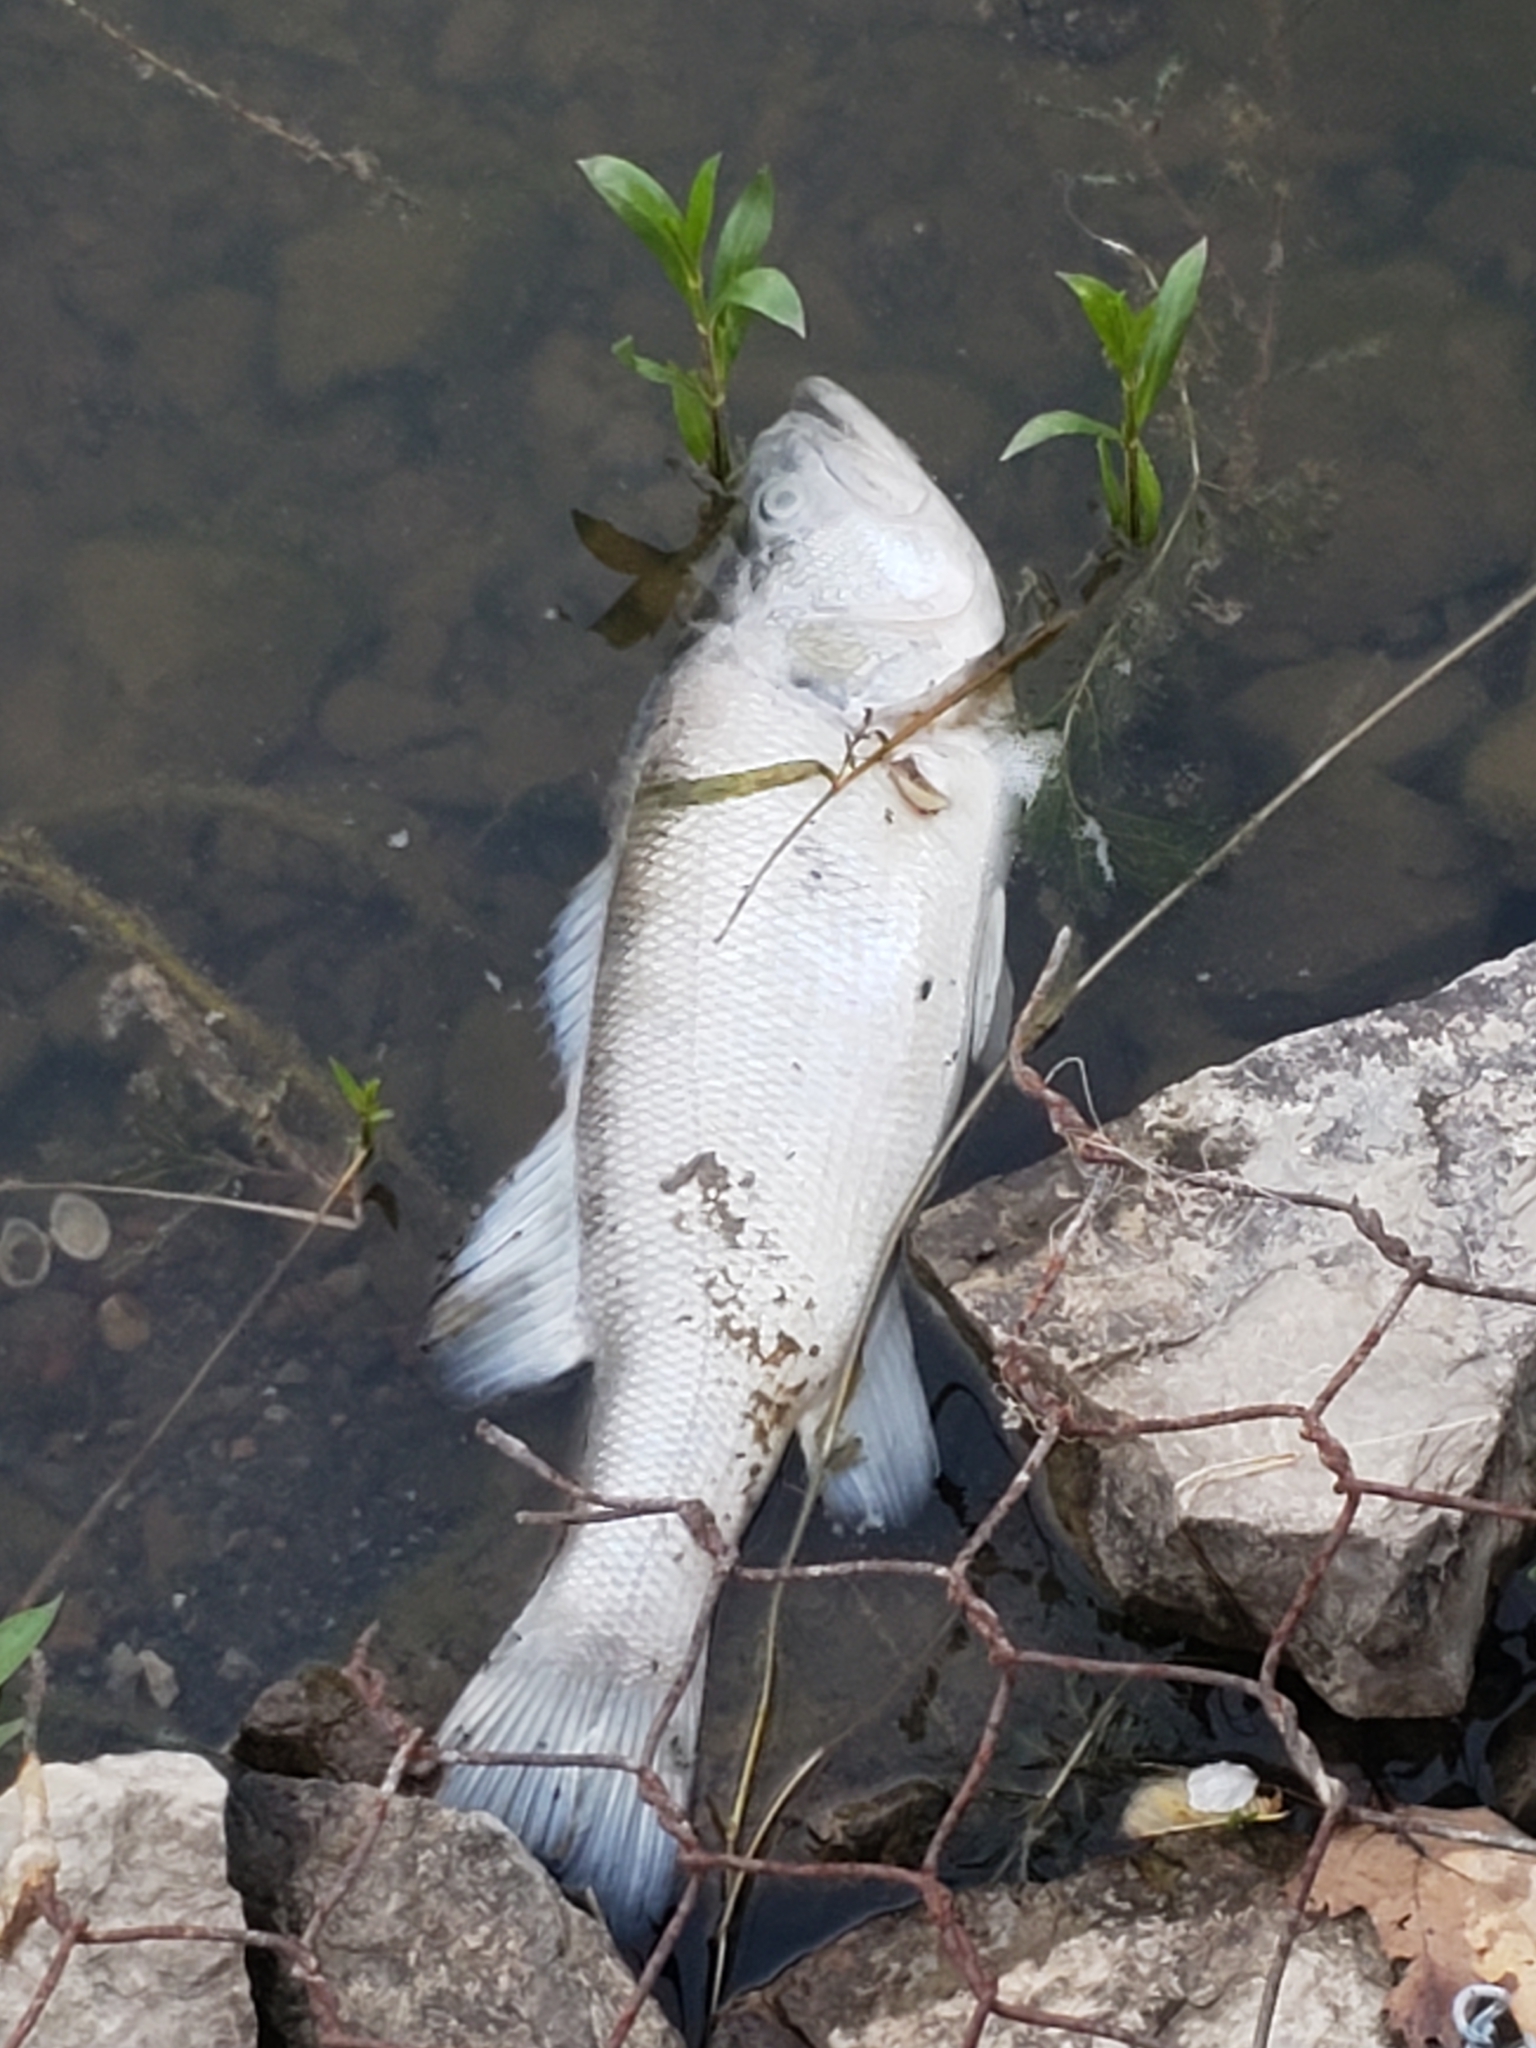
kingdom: Animalia
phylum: Chordata
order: Perciformes
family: Centrarchidae
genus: Micropterus
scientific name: Micropterus
